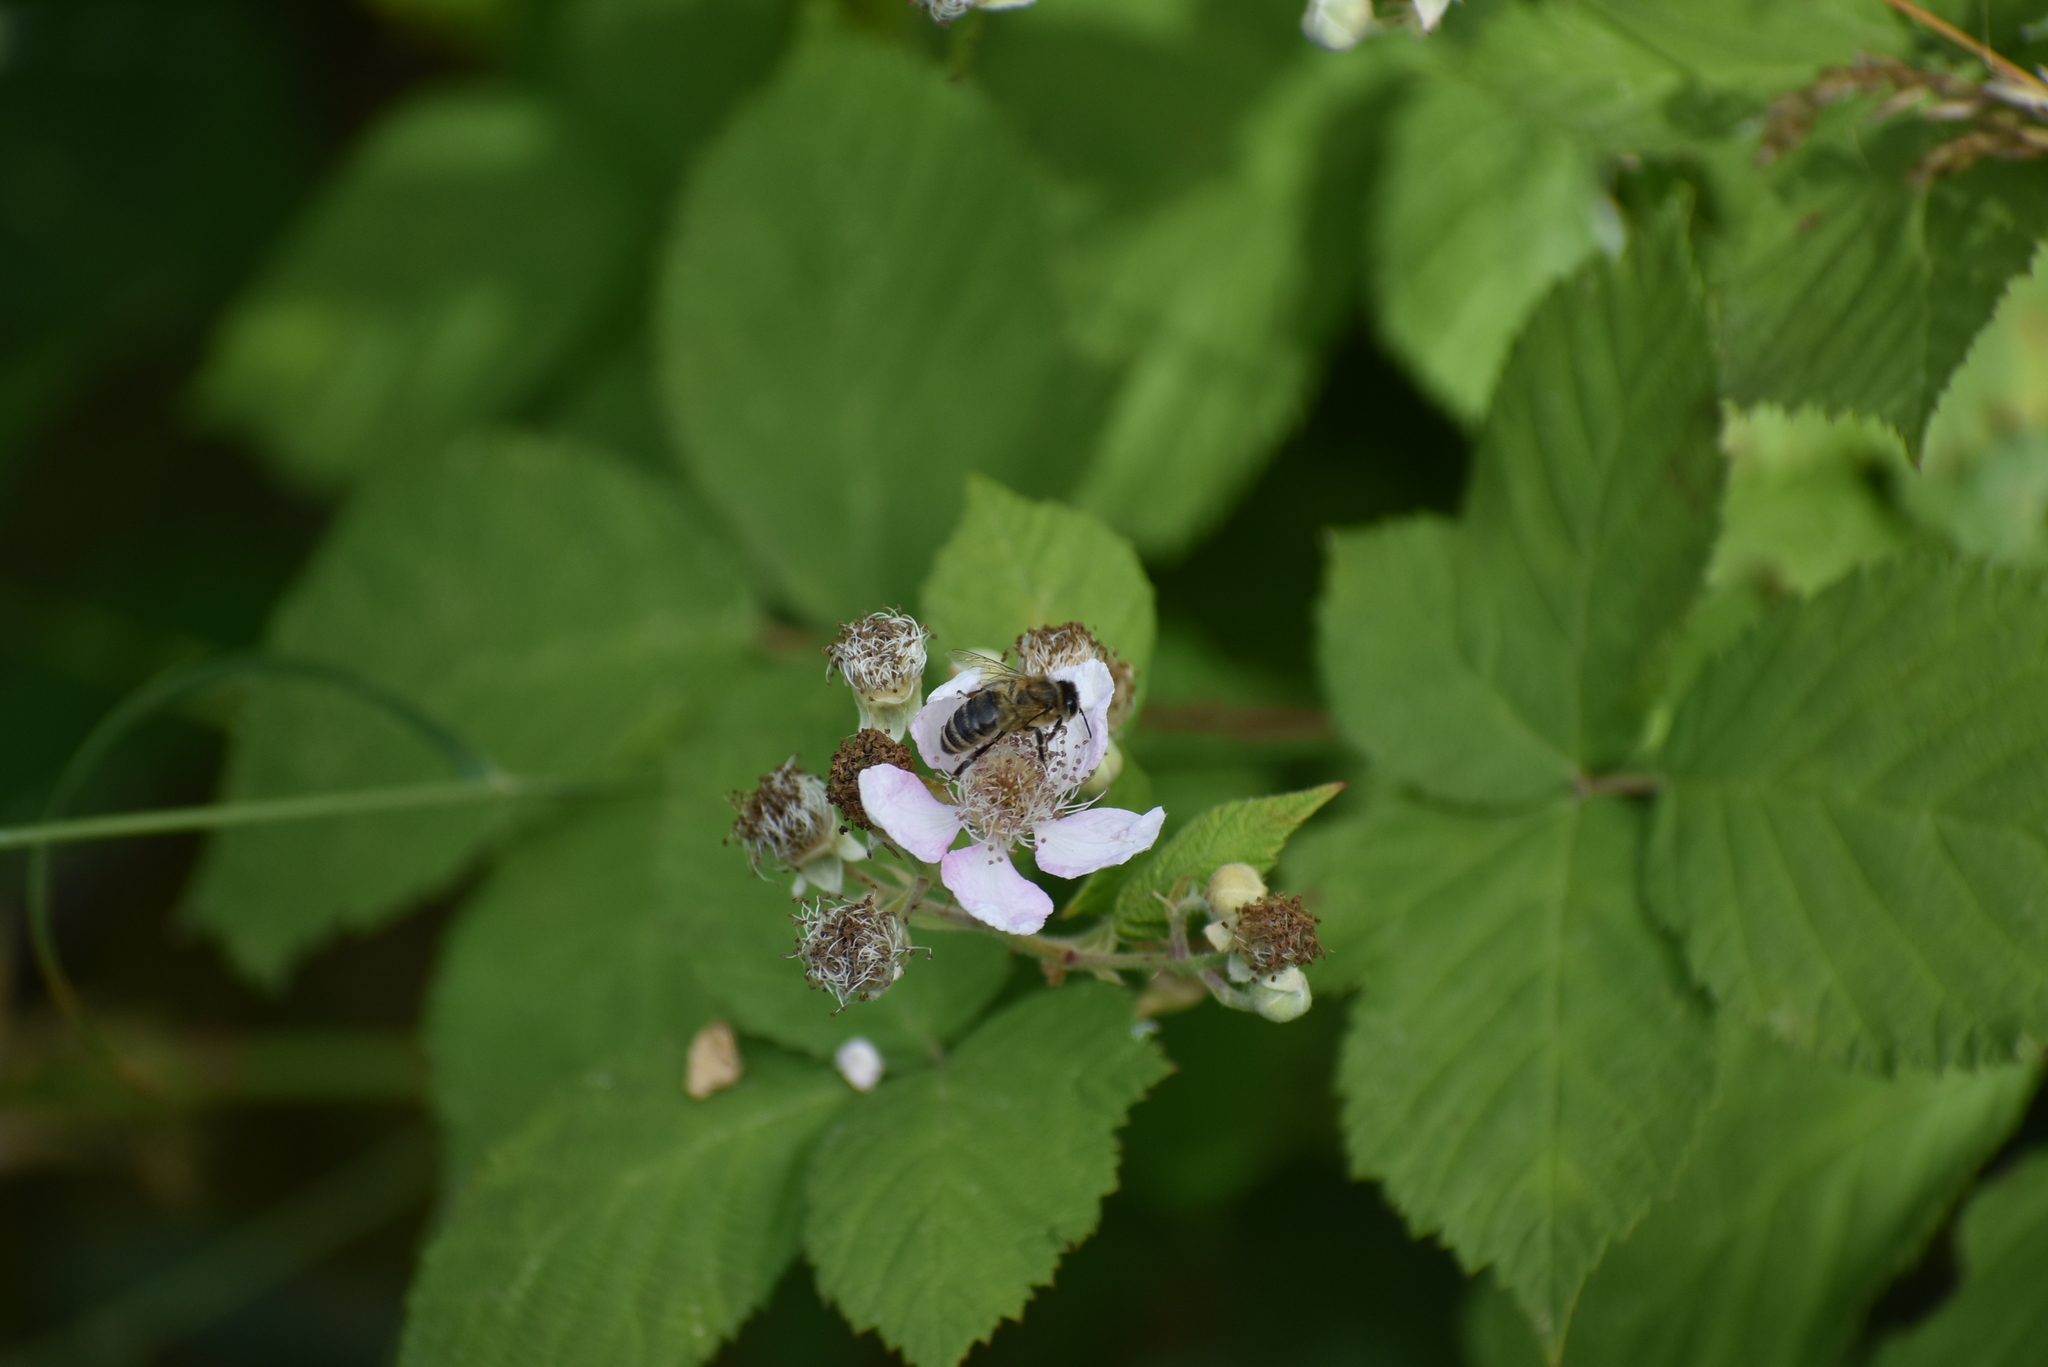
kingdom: Animalia
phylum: Arthropoda
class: Insecta
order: Hymenoptera
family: Apidae
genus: Apis
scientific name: Apis mellifera
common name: Honey bee
